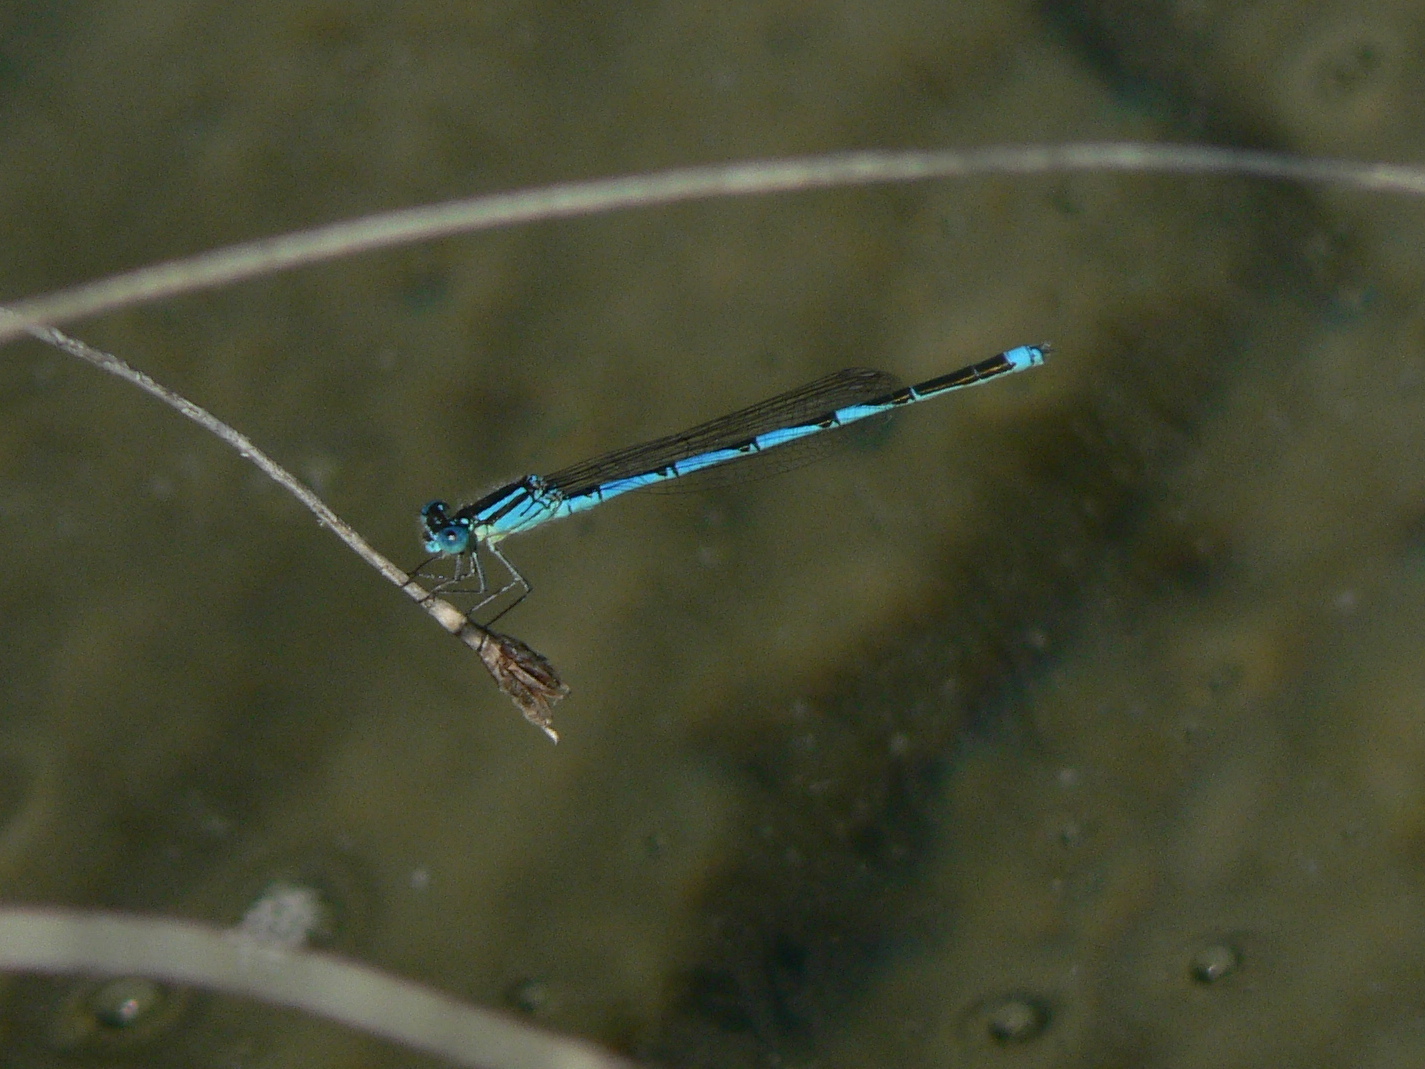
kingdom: Animalia
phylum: Arthropoda
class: Insecta
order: Odonata
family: Coenagrionidae
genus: Erythromma
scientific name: Erythromma lindenii
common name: Blue-eye
